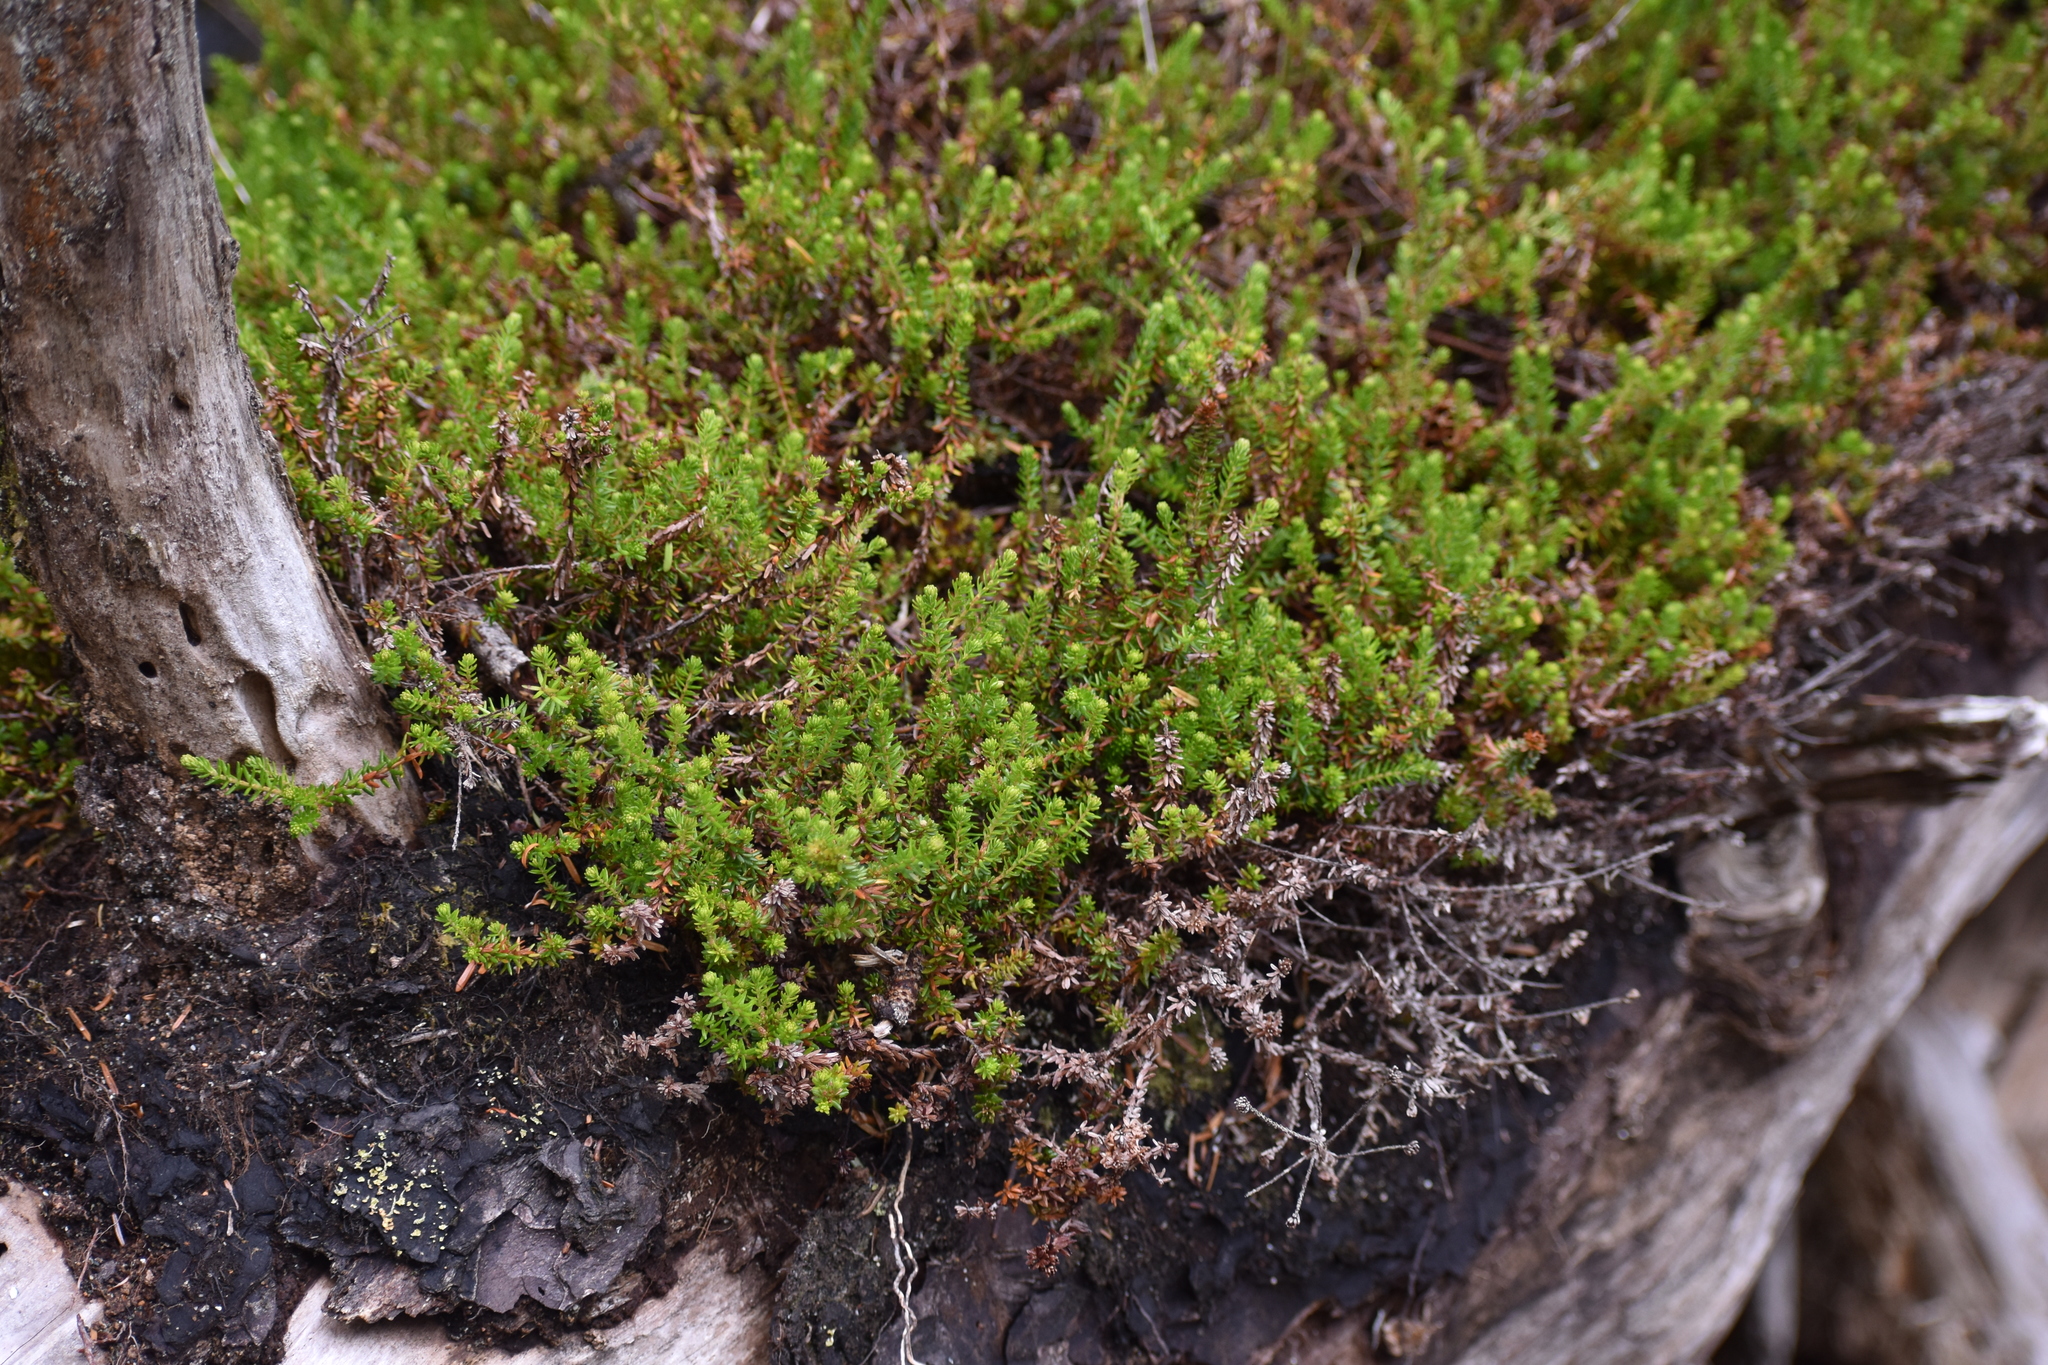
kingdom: Plantae
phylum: Tracheophyta
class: Magnoliopsida
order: Ericales
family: Ericaceae
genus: Empetrum
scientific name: Empetrum nigrum
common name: Black crowberry
